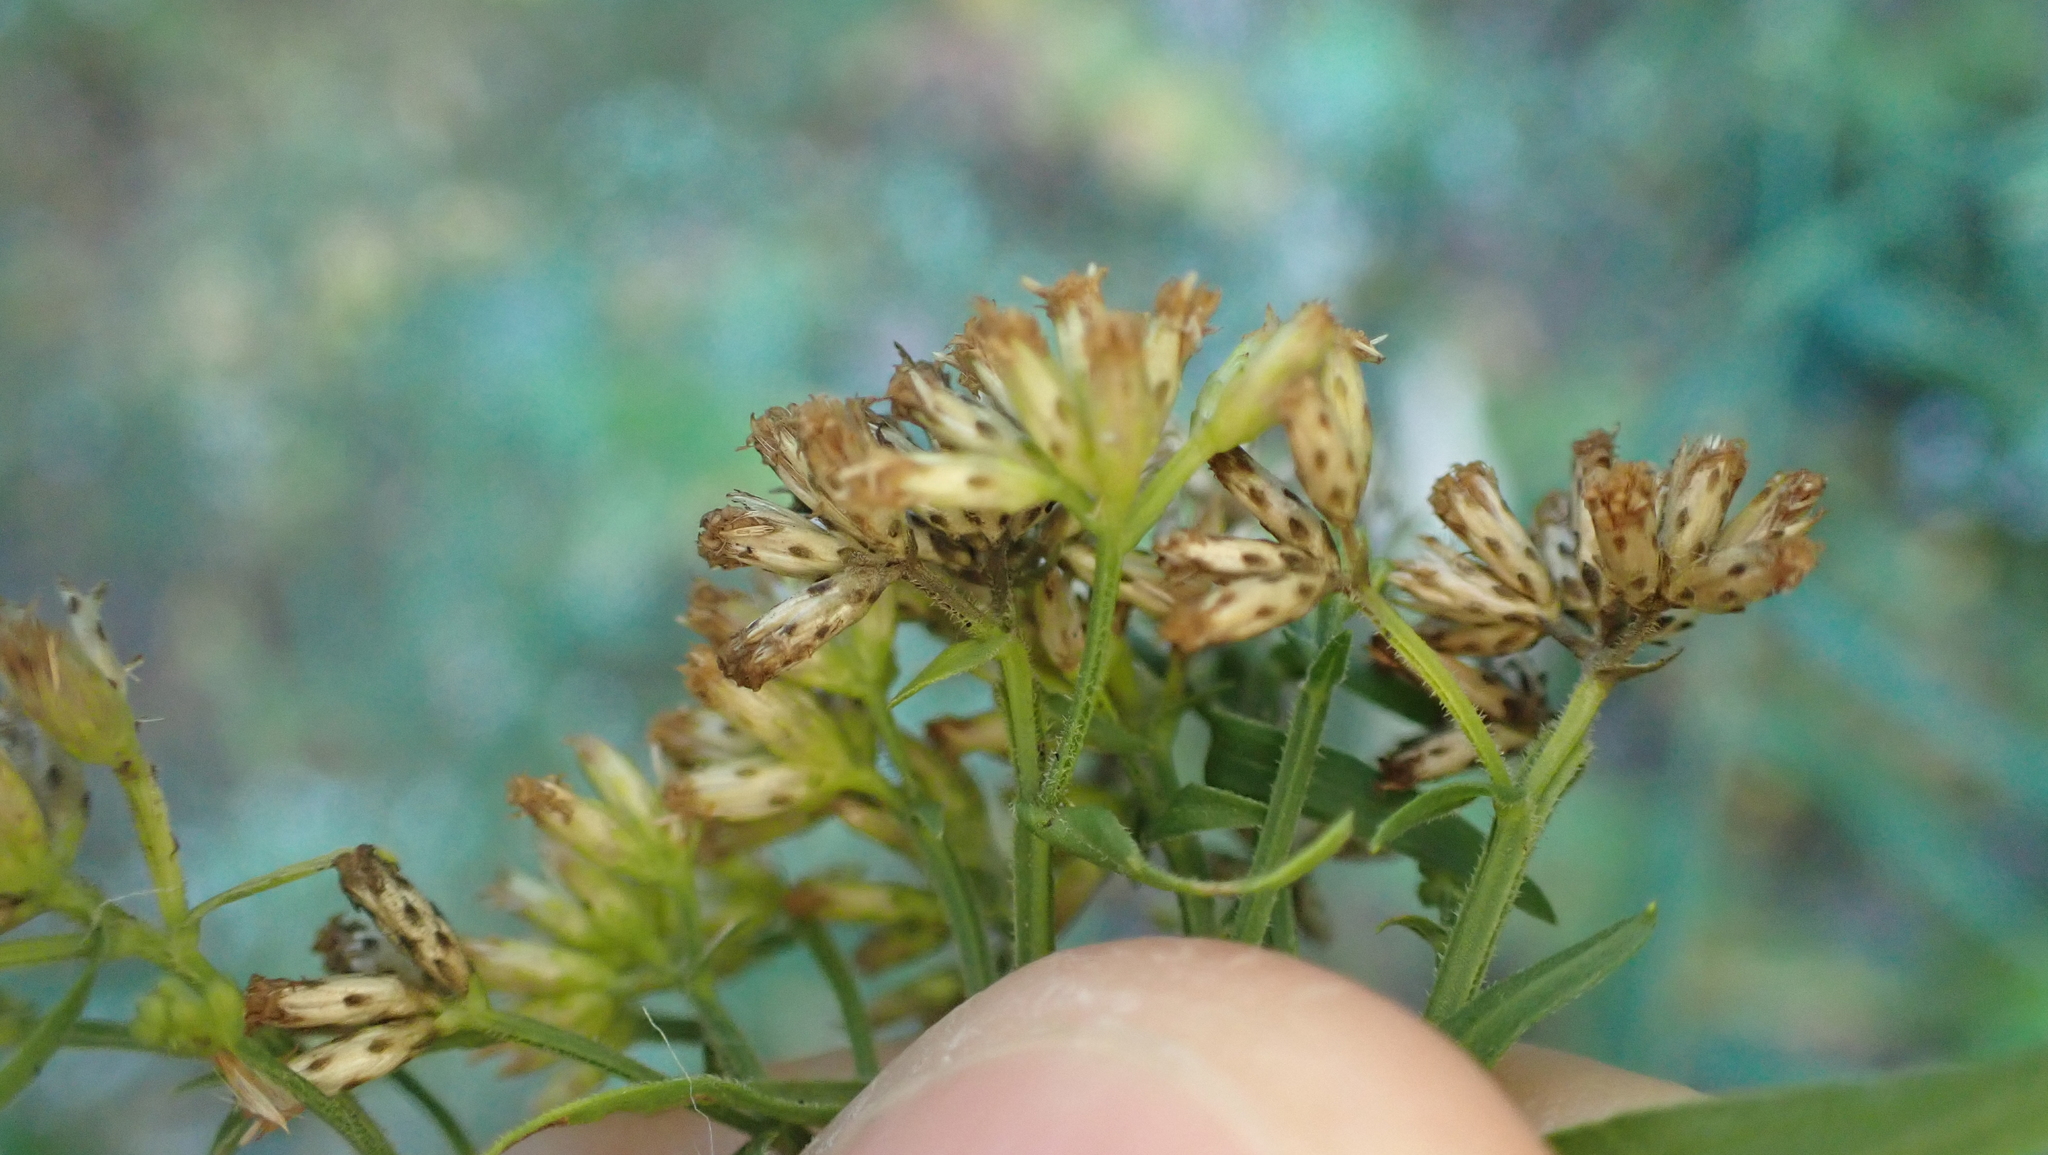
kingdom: Plantae
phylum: Tracheophyta
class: Magnoliopsida
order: Asterales
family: Asteraceae
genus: Euthamia
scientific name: Euthamia graminifolia
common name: Common goldentop
